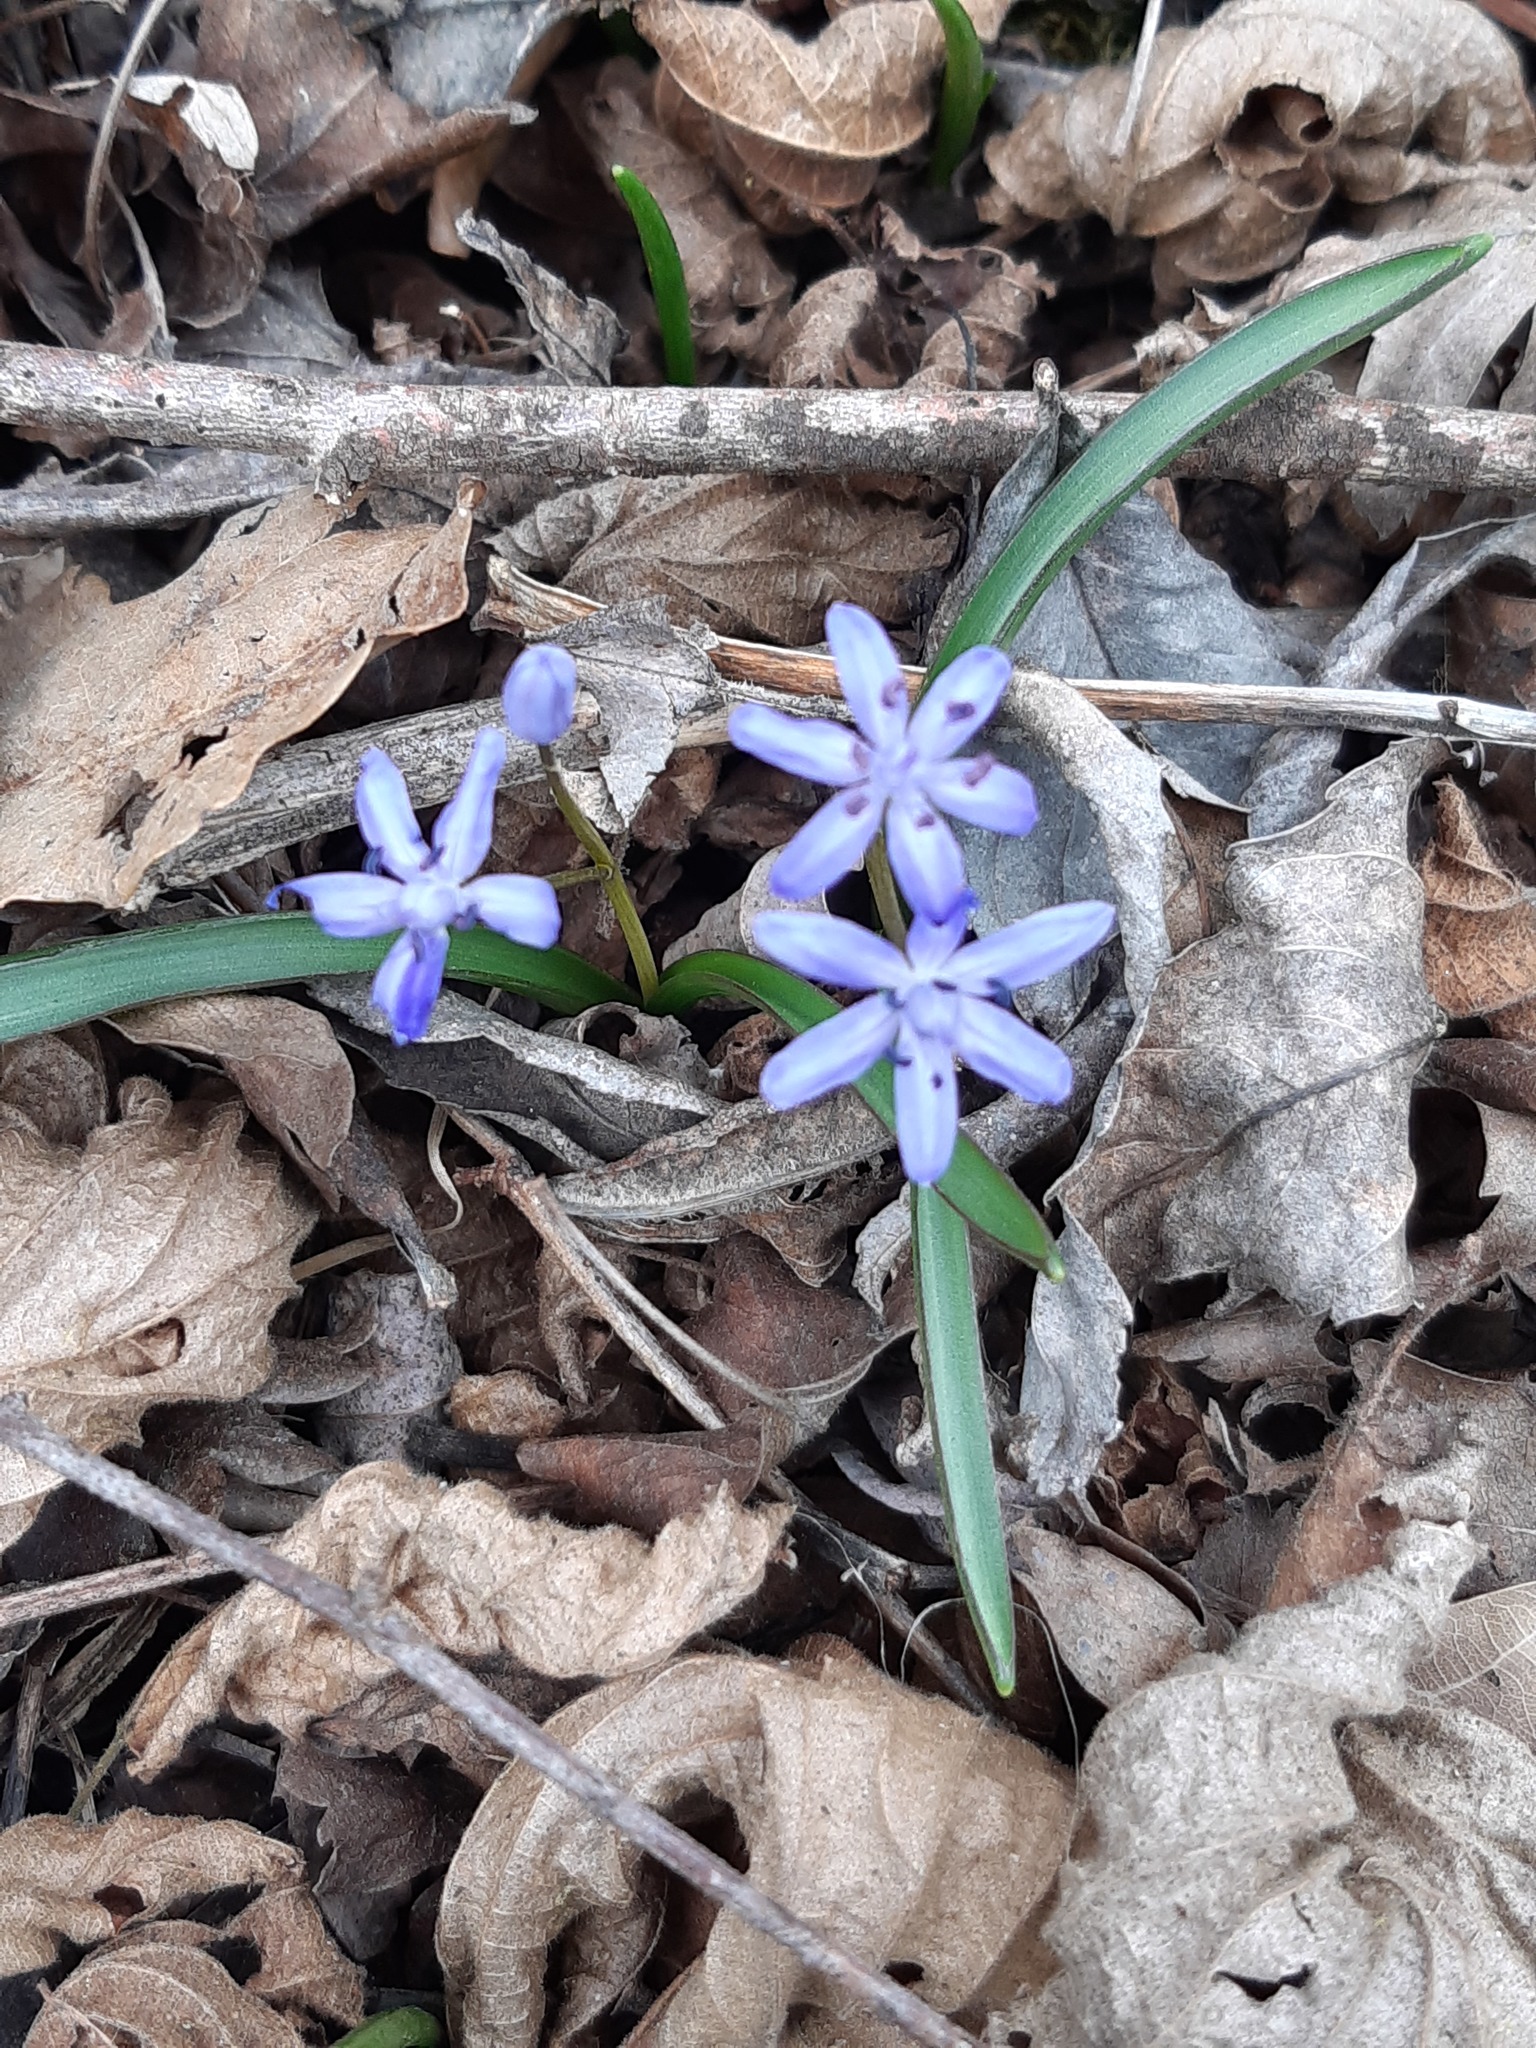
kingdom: Plantae
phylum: Tracheophyta
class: Liliopsida
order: Asparagales
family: Asparagaceae
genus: Scilla
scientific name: Scilla bifolia
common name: Alpine squill
